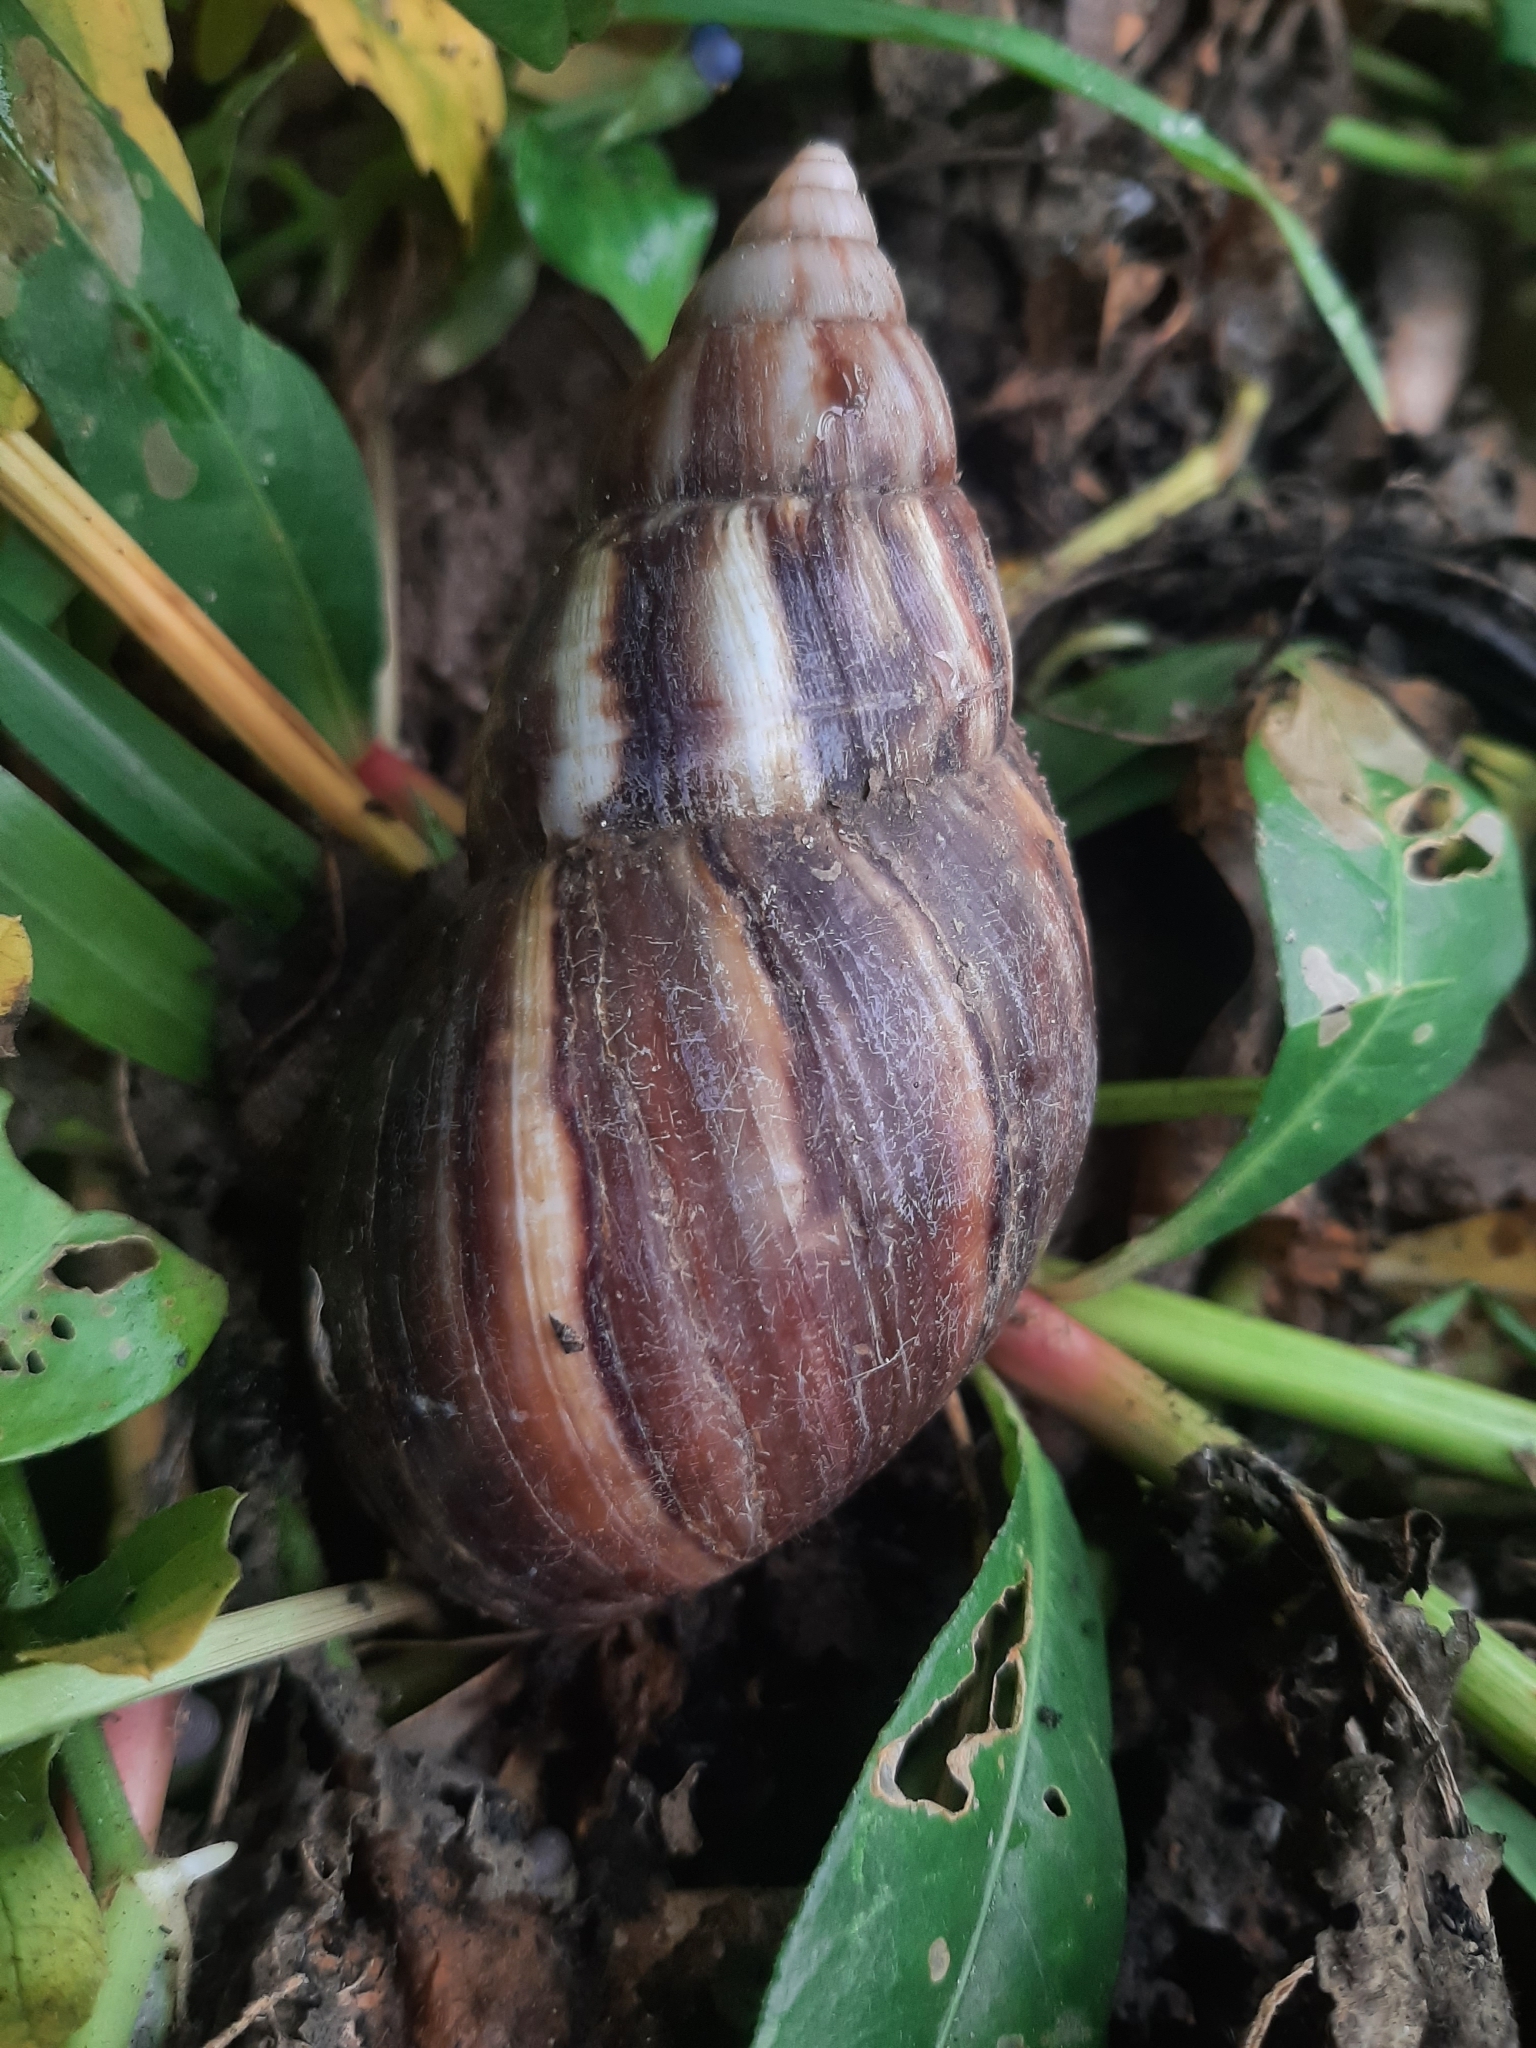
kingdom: Animalia
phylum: Mollusca
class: Gastropoda
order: Stylommatophora
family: Achatinidae
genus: Lissachatina
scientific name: Lissachatina fulica
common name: Giant african snail
